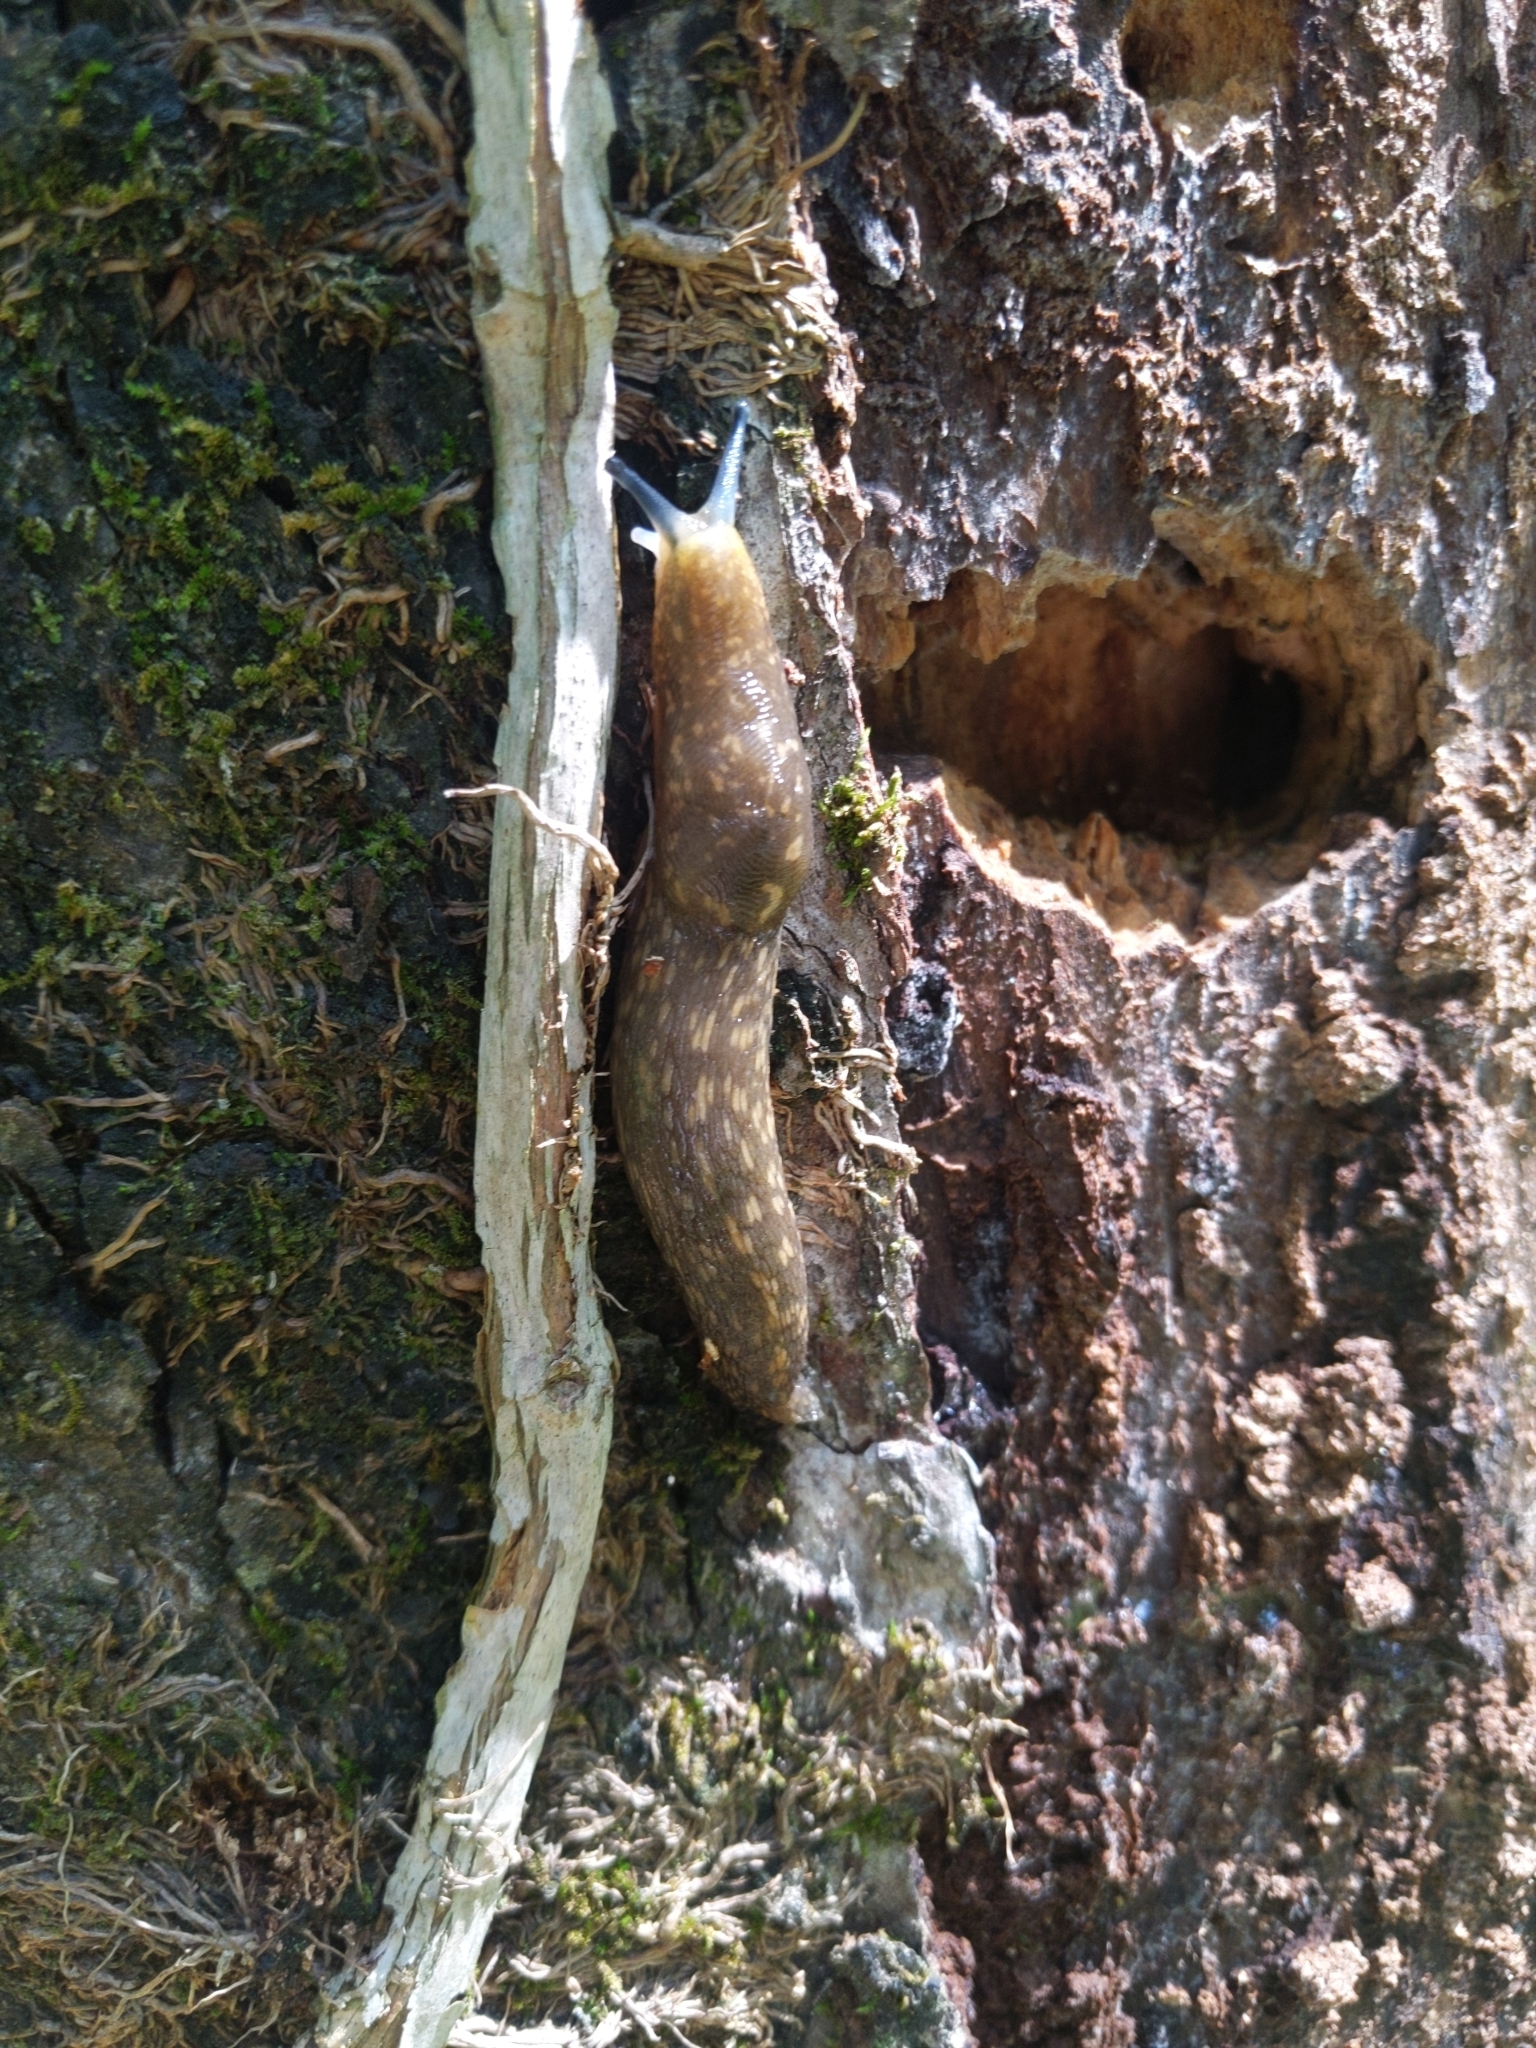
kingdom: Animalia
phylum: Mollusca
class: Gastropoda
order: Stylommatophora
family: Limacidae
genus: Limacus
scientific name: Limacus flavus
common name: Yellow gardenslug
